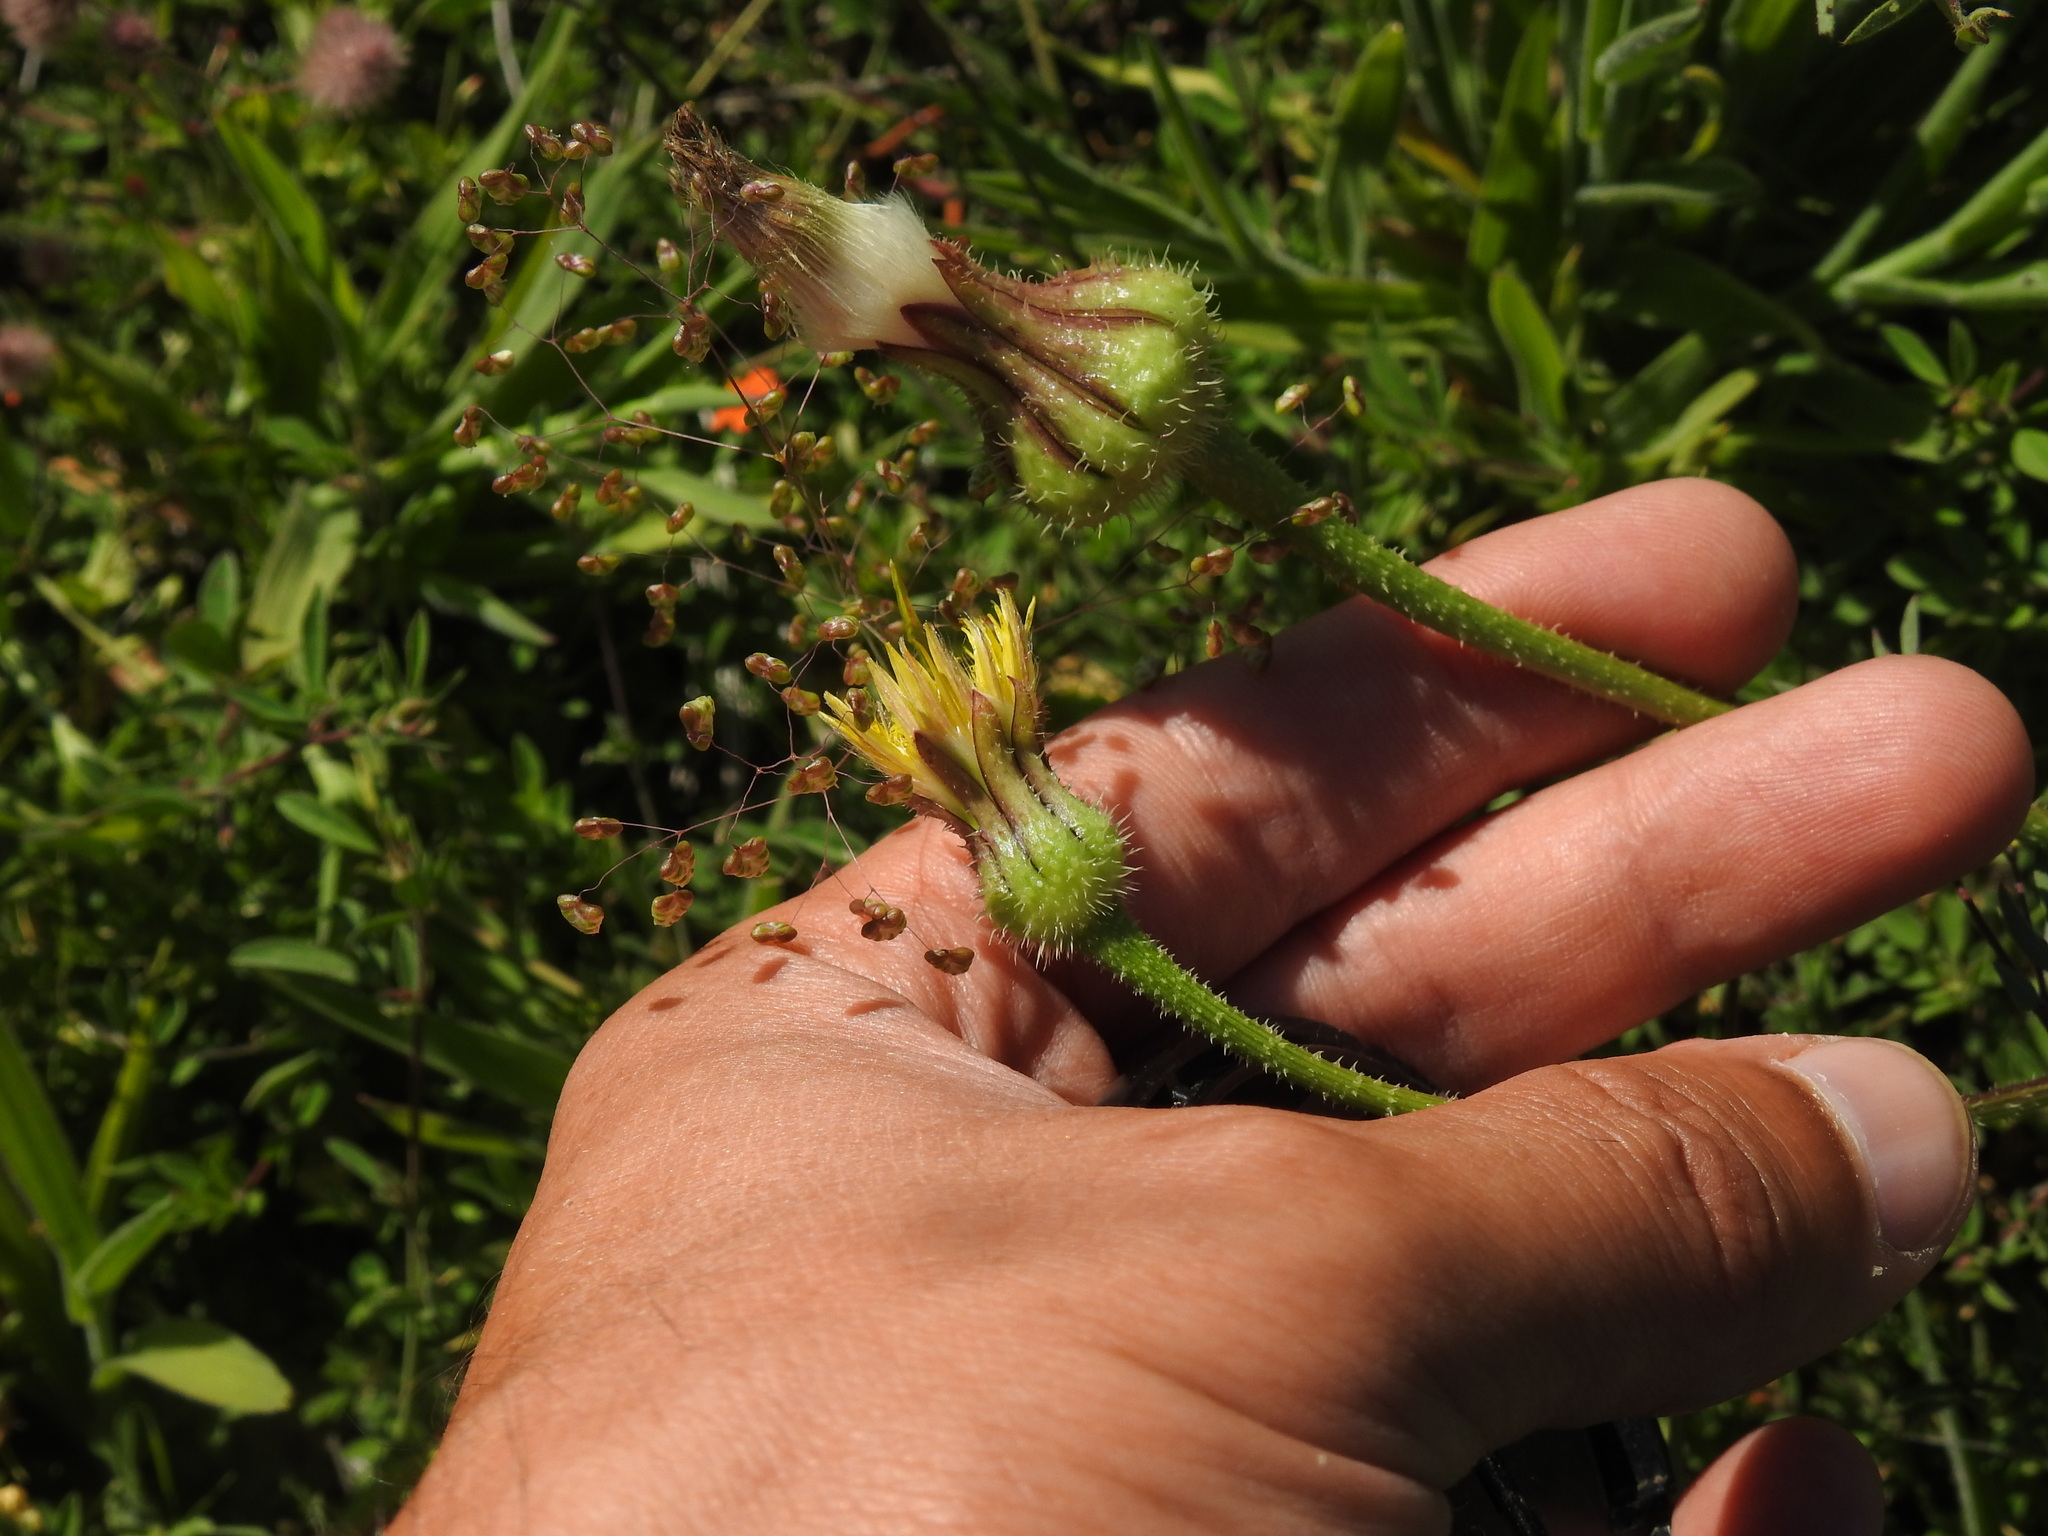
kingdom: Plantae
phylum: Tracheophyta
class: Magnoliopsida
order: Asterales
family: Asteraceae
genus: Urospermum
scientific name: Urospermum picroides
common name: False hawkbit
